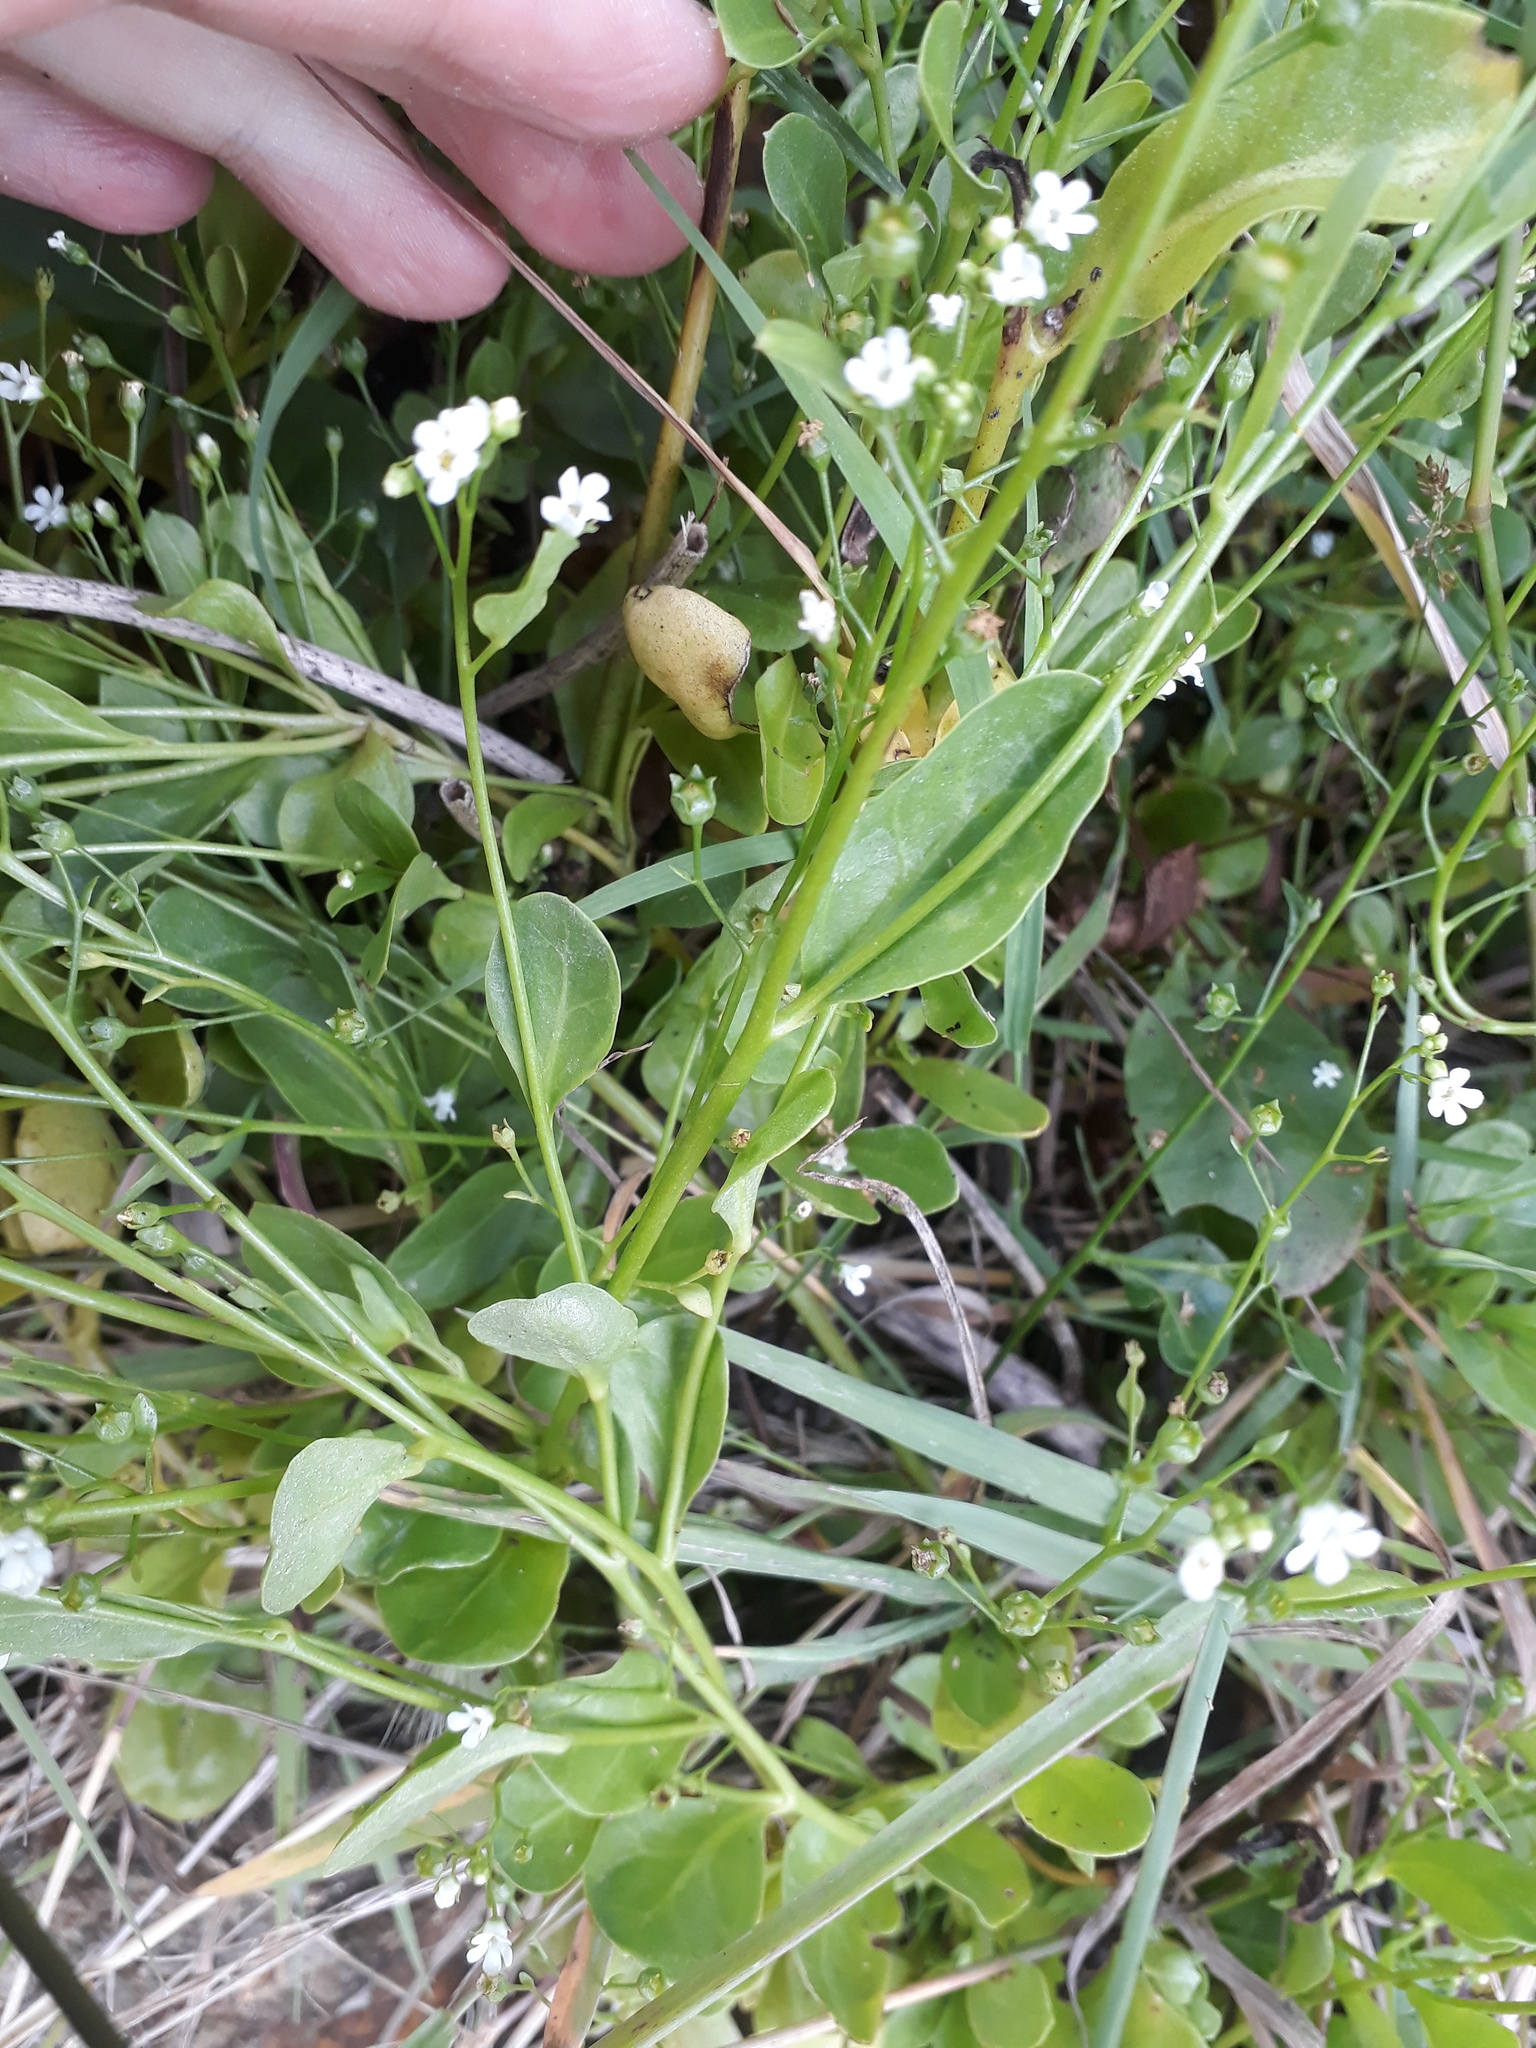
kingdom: Plantae
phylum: Tracheophyta
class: Magnoliopsida
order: Ericales
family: Primulaceae
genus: Samolus
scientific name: Samolus valerandi
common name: Brookweed
